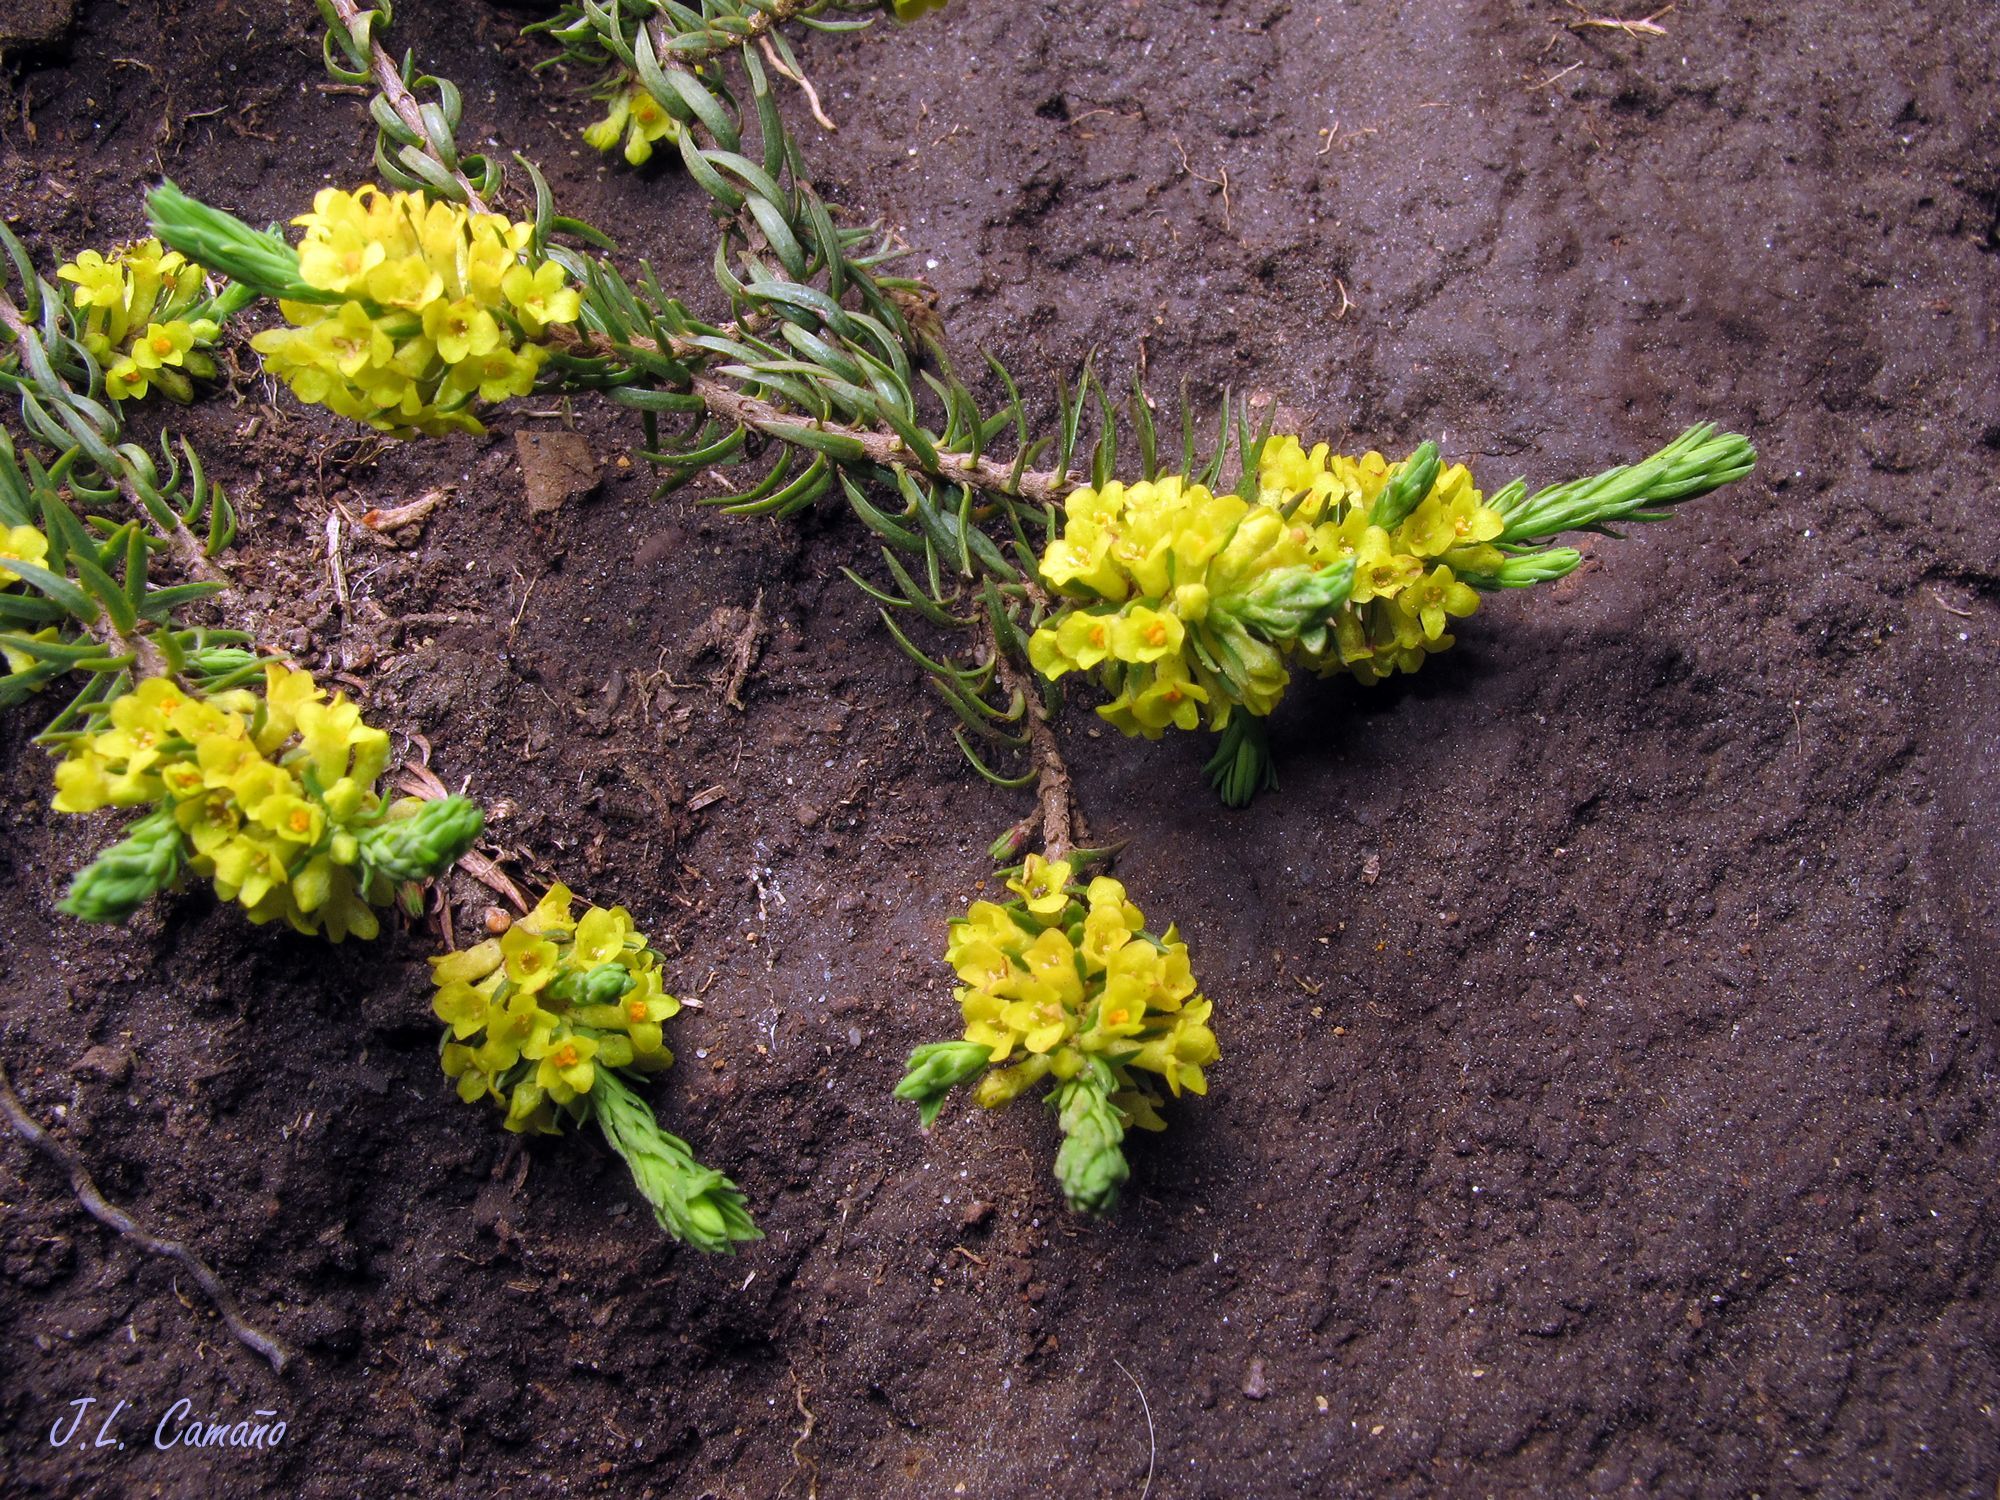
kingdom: Plantae
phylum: Tracheophyta
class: Magnoliopsida
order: Malvales
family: Thymelaeaceae
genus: Thymelaea
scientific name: Thymelaea coridifolia
